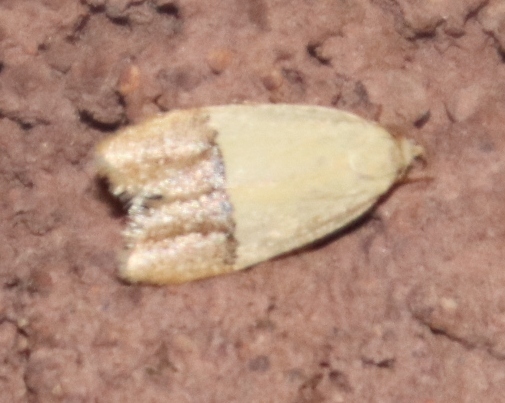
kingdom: Animalia
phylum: Arthropoda
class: Insecta
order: Lepidoptera
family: Peleopodidae
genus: Odites
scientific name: Odites natalensis
